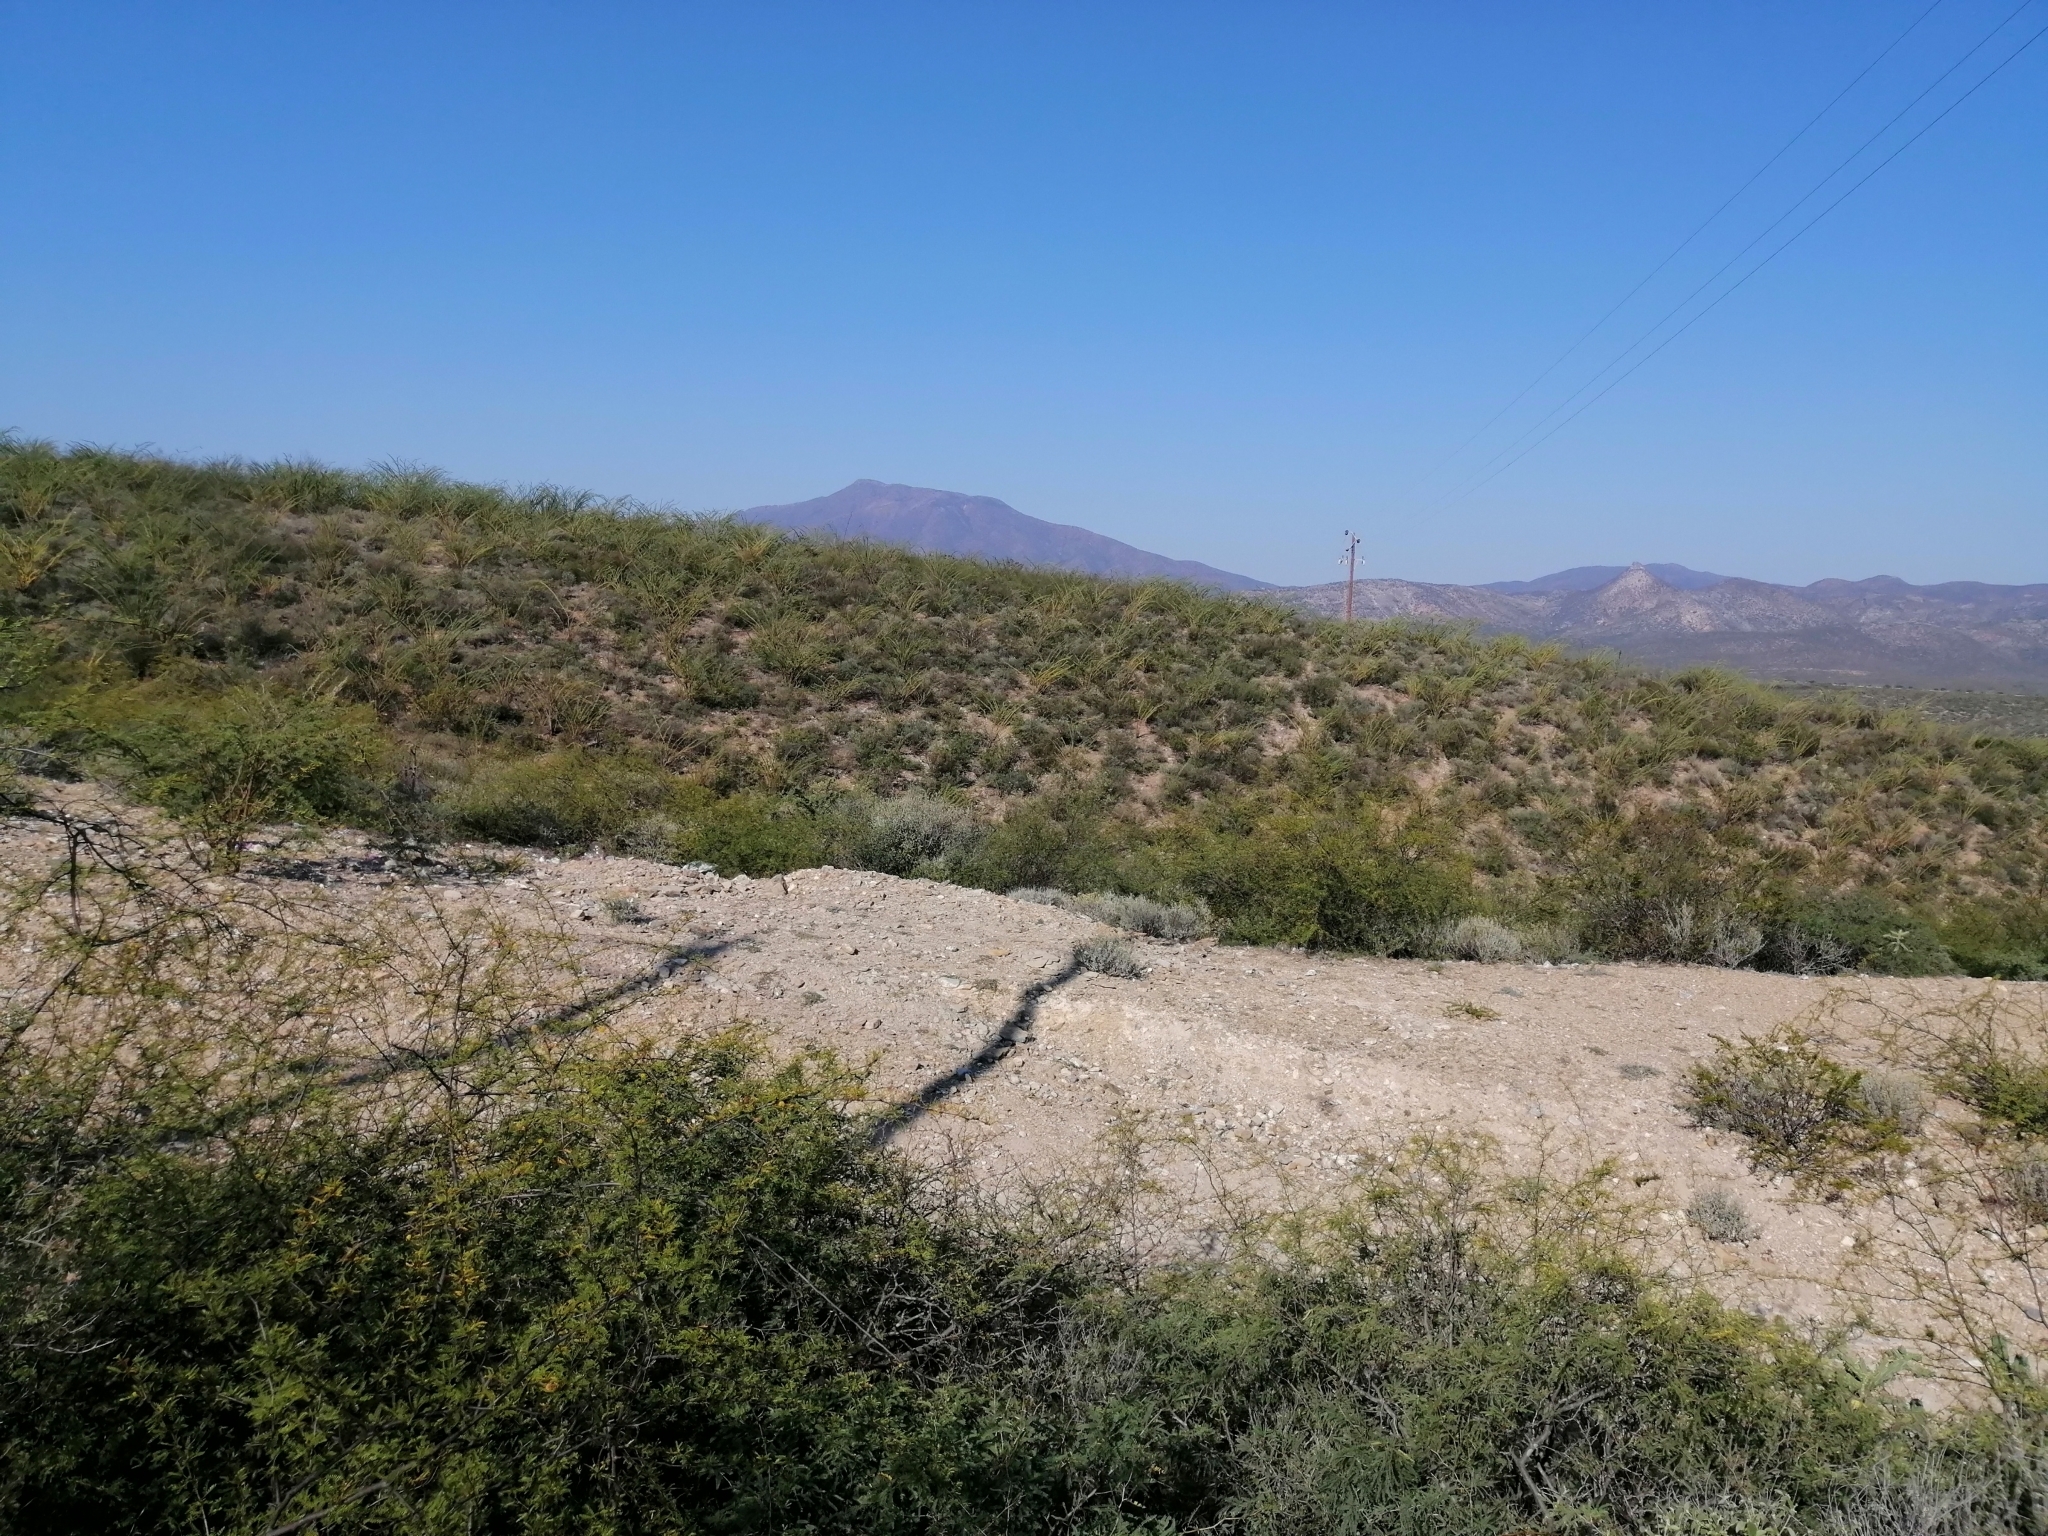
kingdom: Plantae
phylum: Tracheophyta
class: Magnoliopsida
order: Ericales
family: Fouquieriaceae
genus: Fouquieria
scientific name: Fouquieria splendens
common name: Vine-cactus
